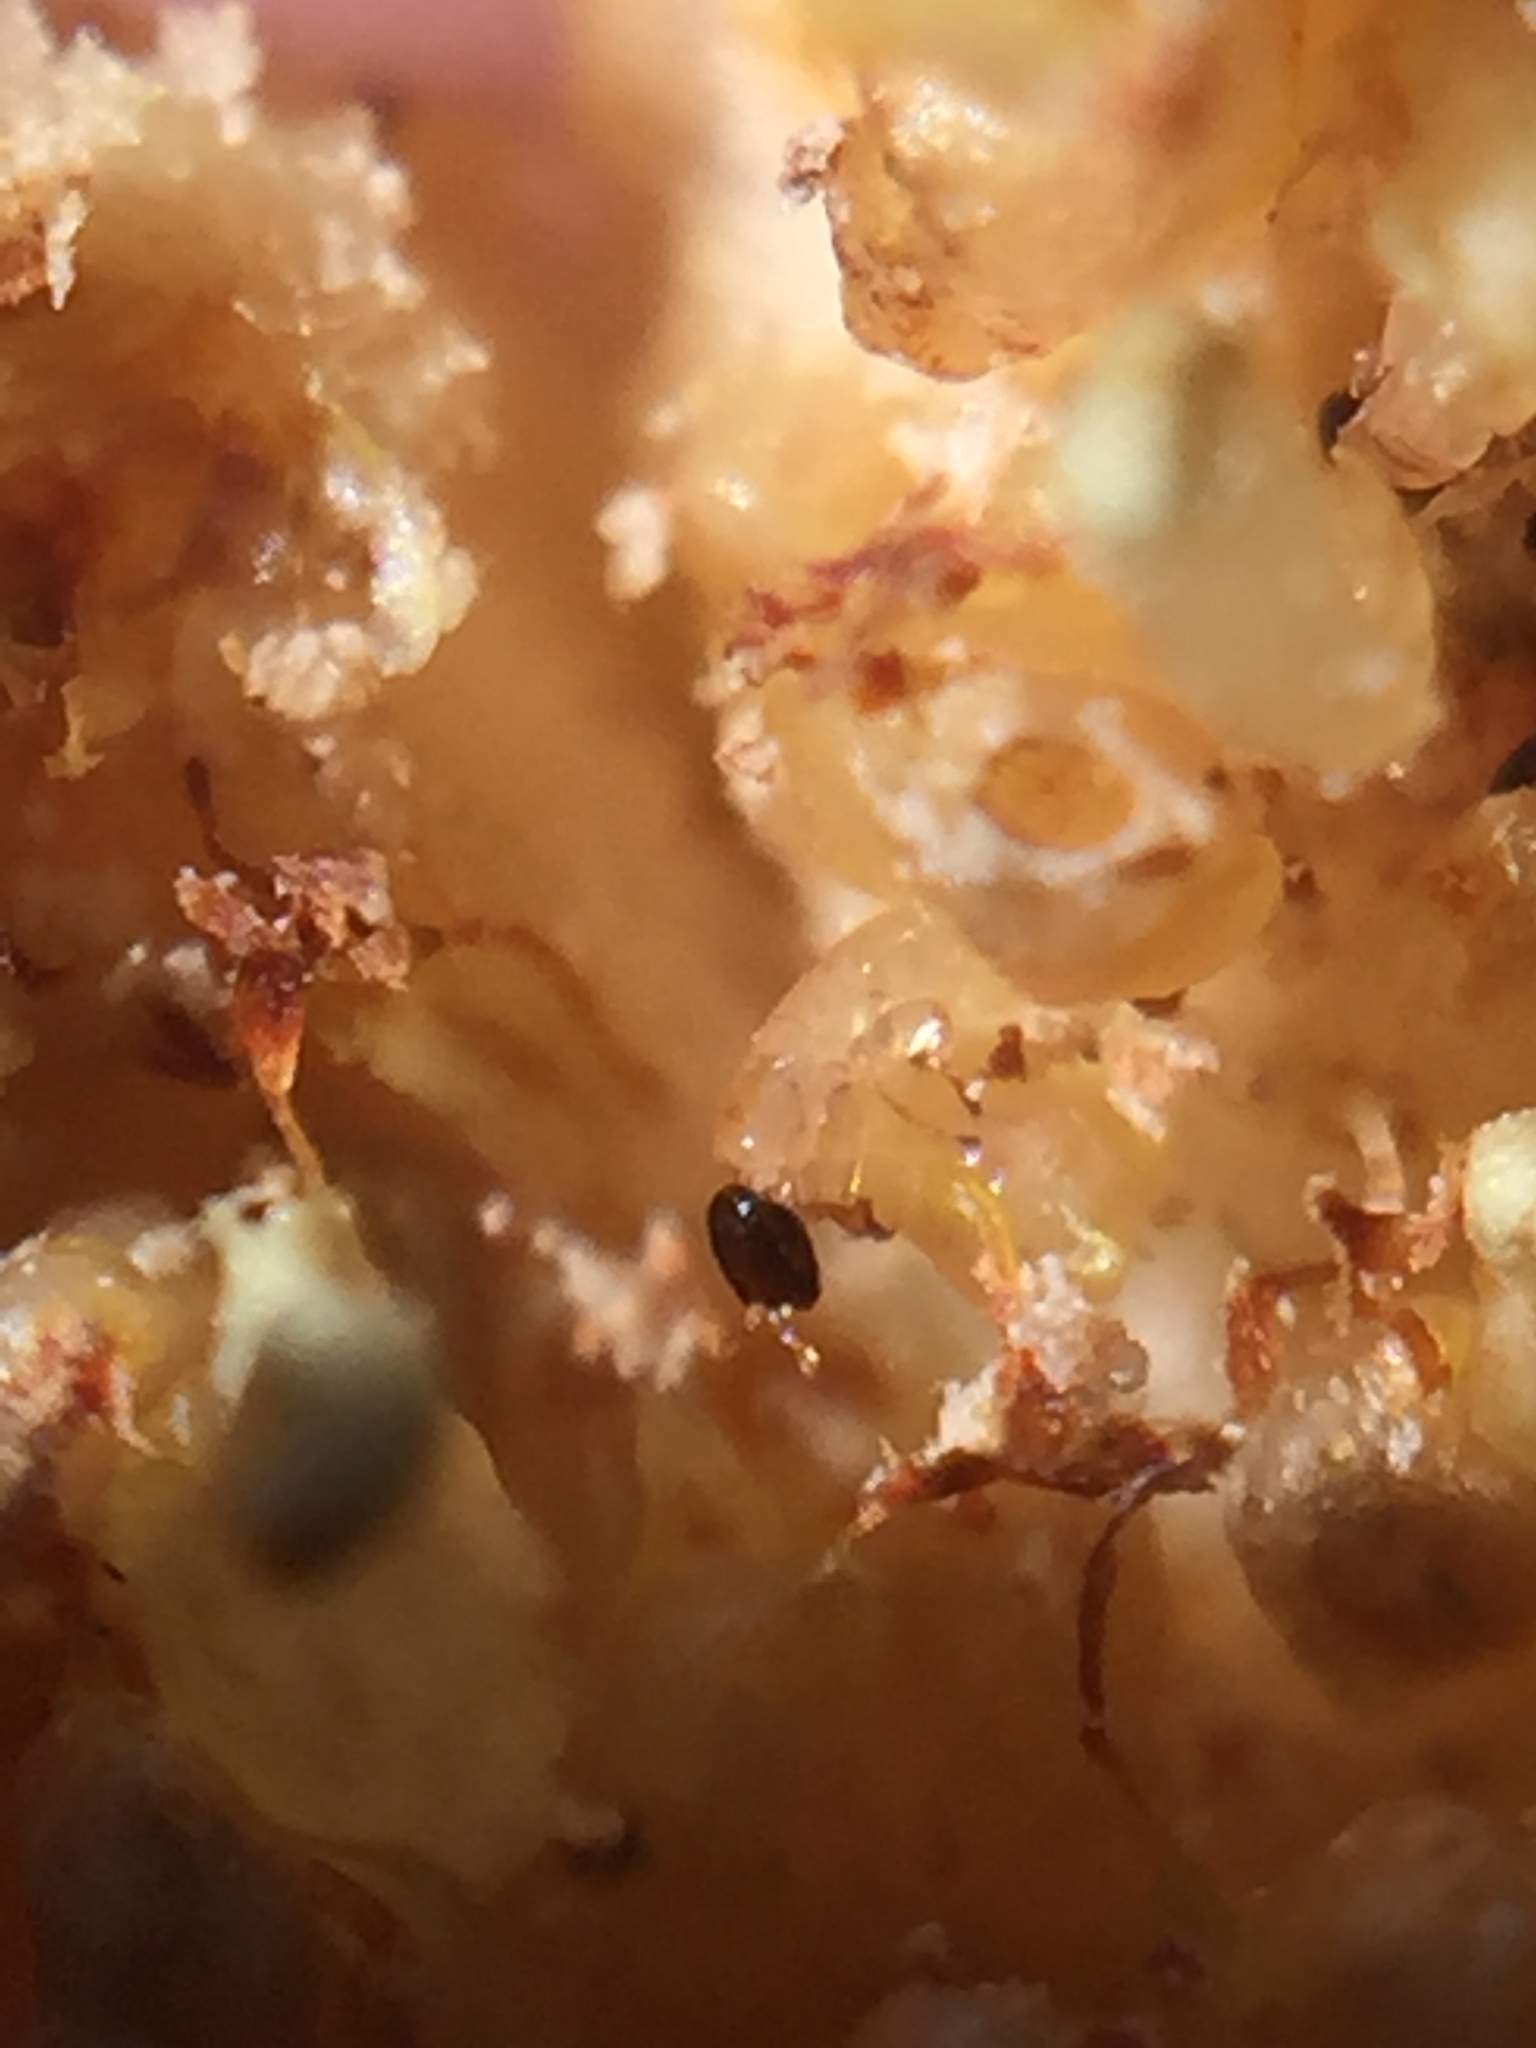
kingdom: Animalia
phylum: Arthropoda
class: Insecta
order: Hymenoptera
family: Agaonidae
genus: Pleistodontes
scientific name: Pleistodontes imperialis
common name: Fig wasp
